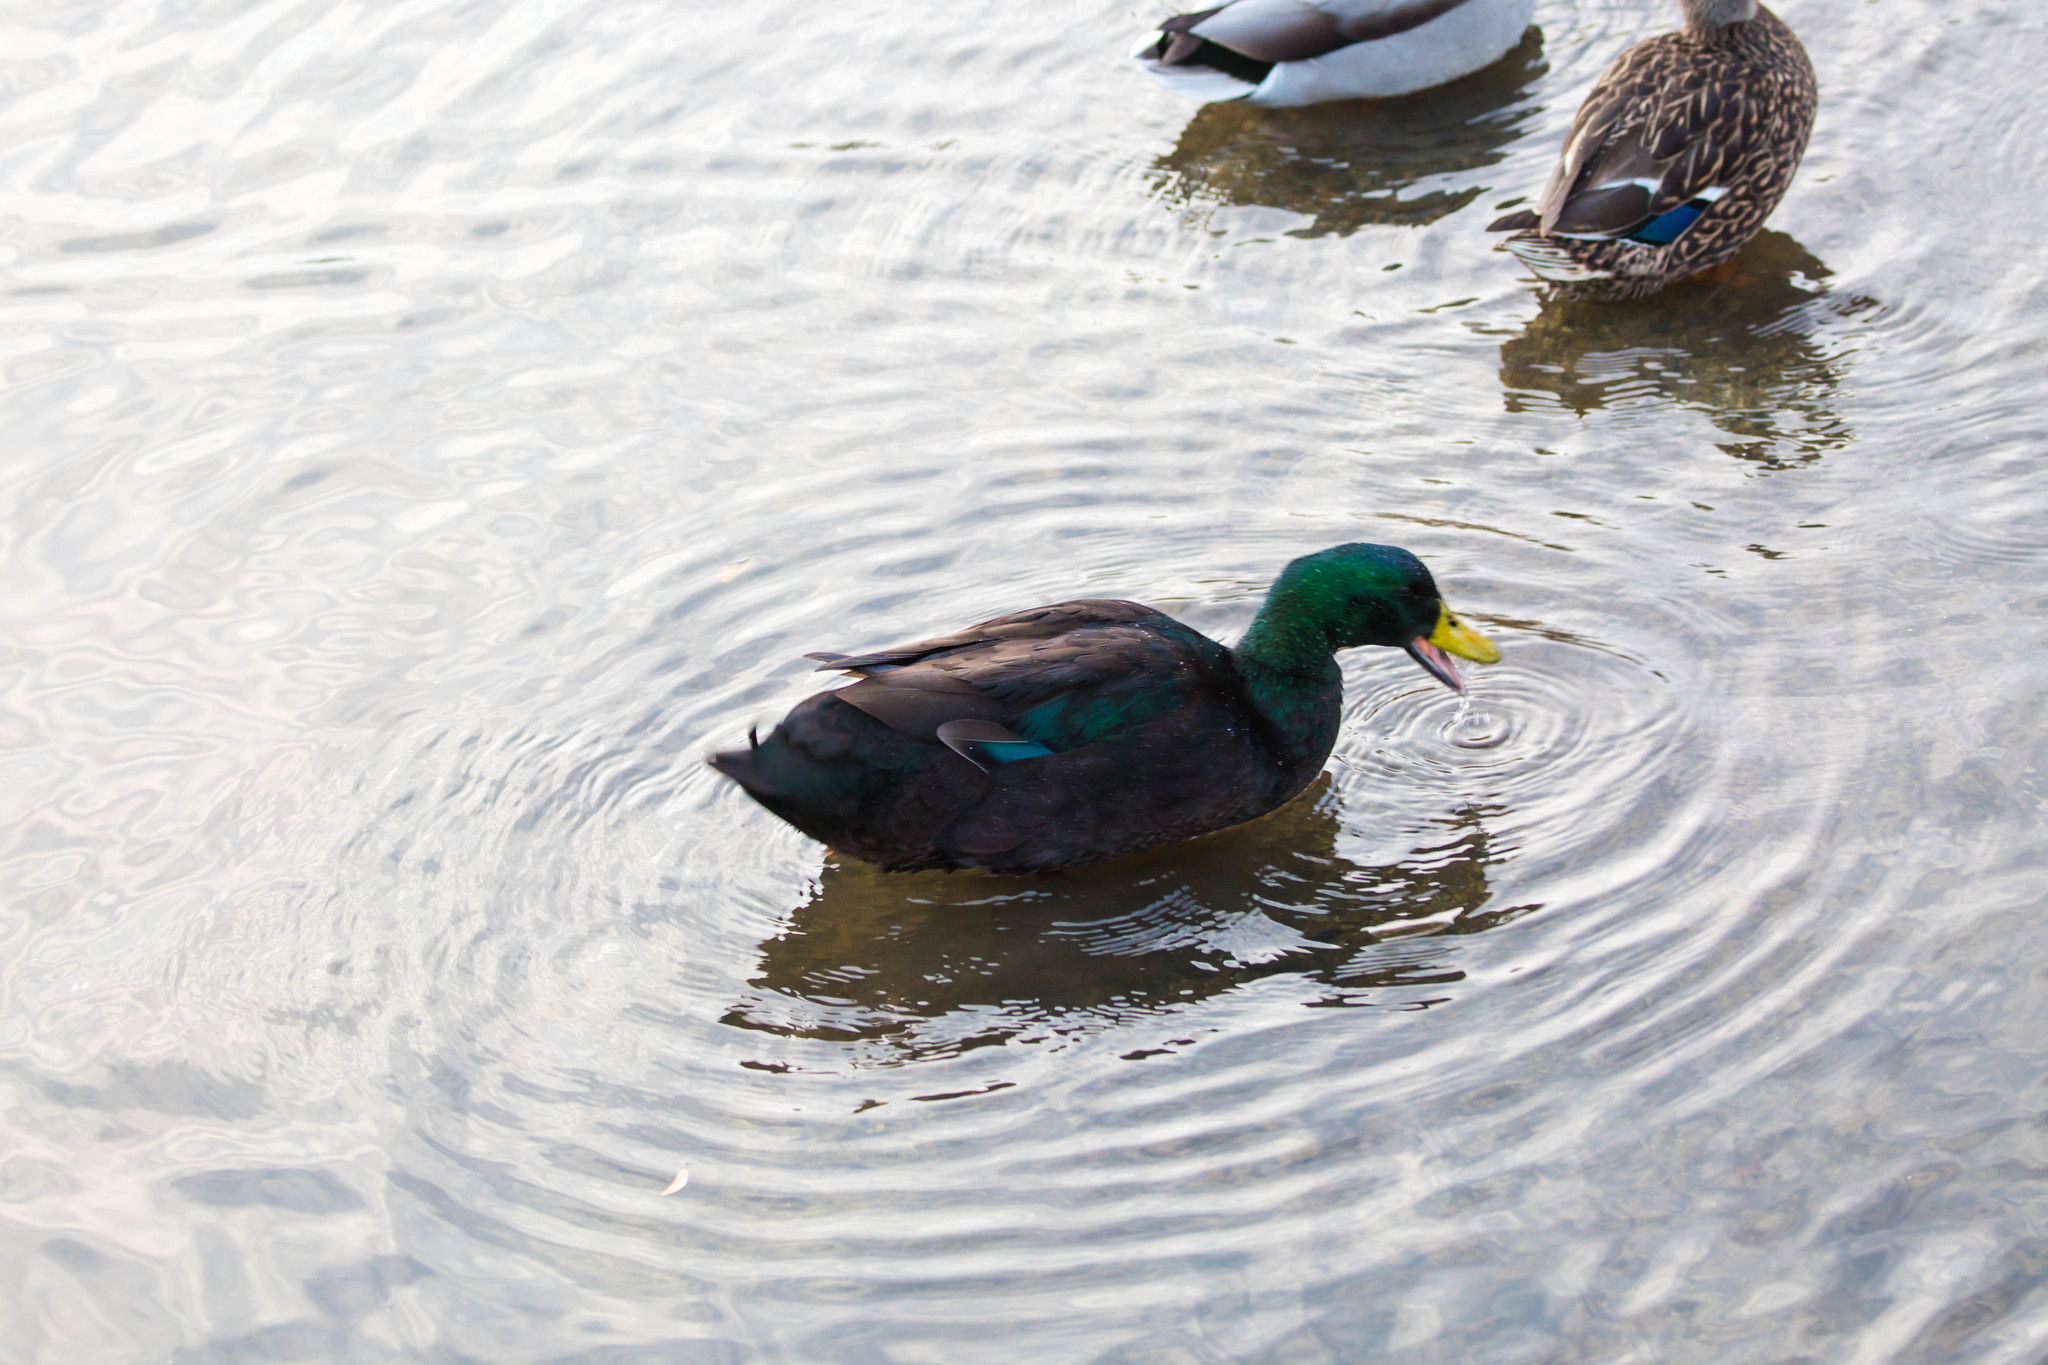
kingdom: Animalia
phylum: Chordata
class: Aves
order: Anseriformes
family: Anatidae
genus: Anas
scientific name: Anas platyrhynchos
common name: Mallard
